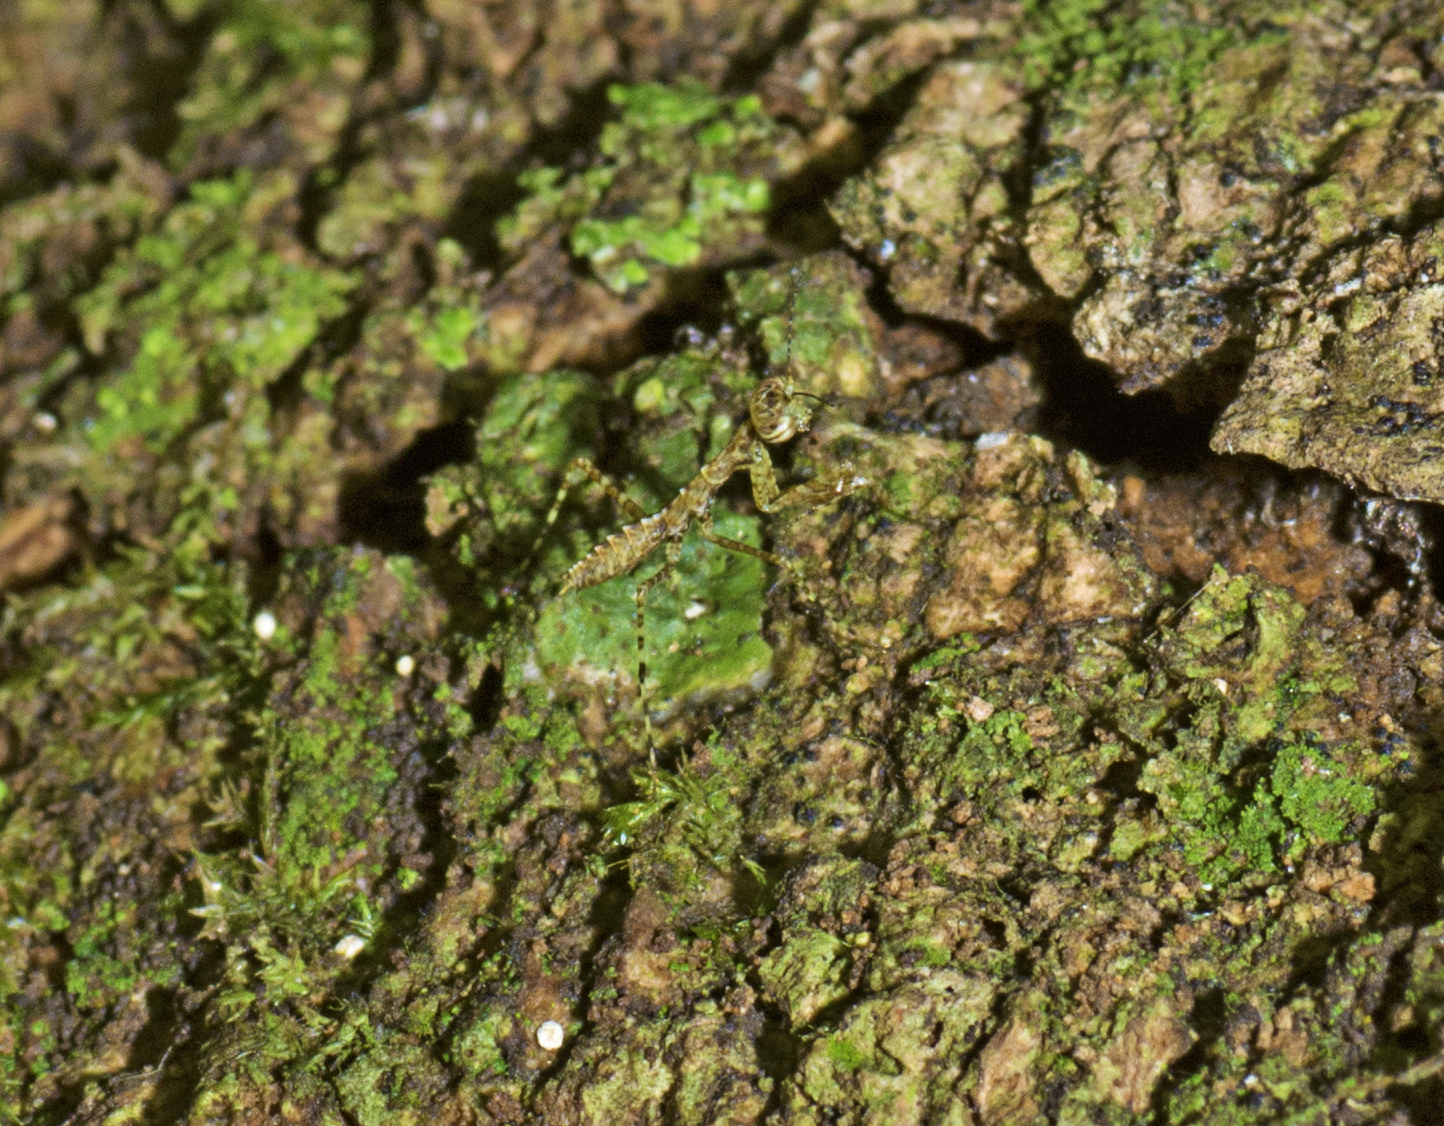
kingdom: Animalia
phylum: Arthropoda
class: Insecta
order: Mantodea
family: Nanomantidae
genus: Calofulcinia
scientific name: Calofulcinia australis
